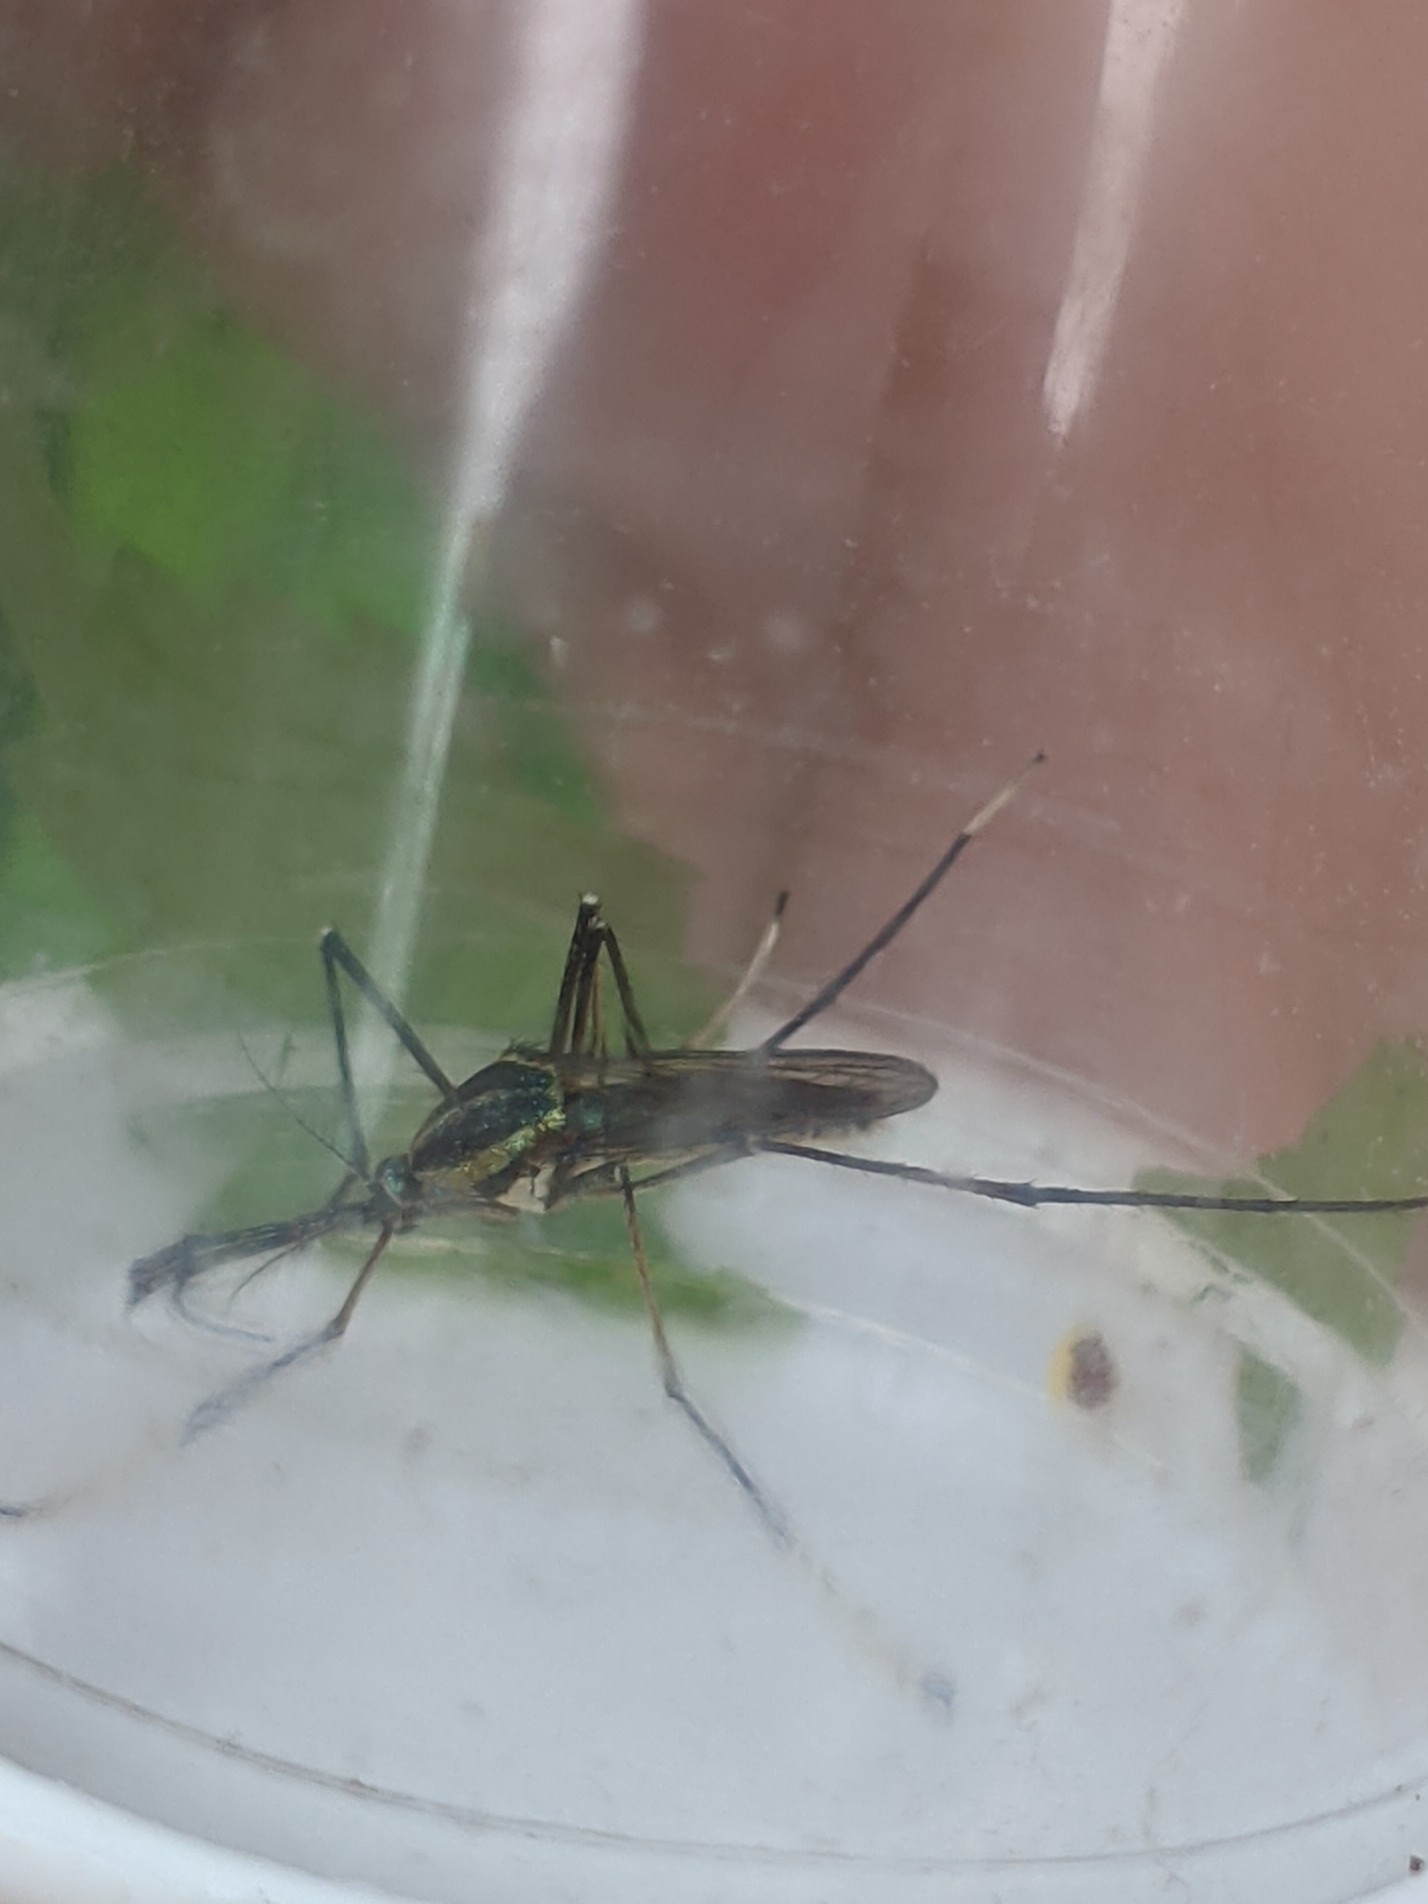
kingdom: Animalia
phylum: Arthropoda
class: Insecta
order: Diptera
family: Culicidae
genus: Toxorhynchites
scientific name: Toxorhynchites rutilus
